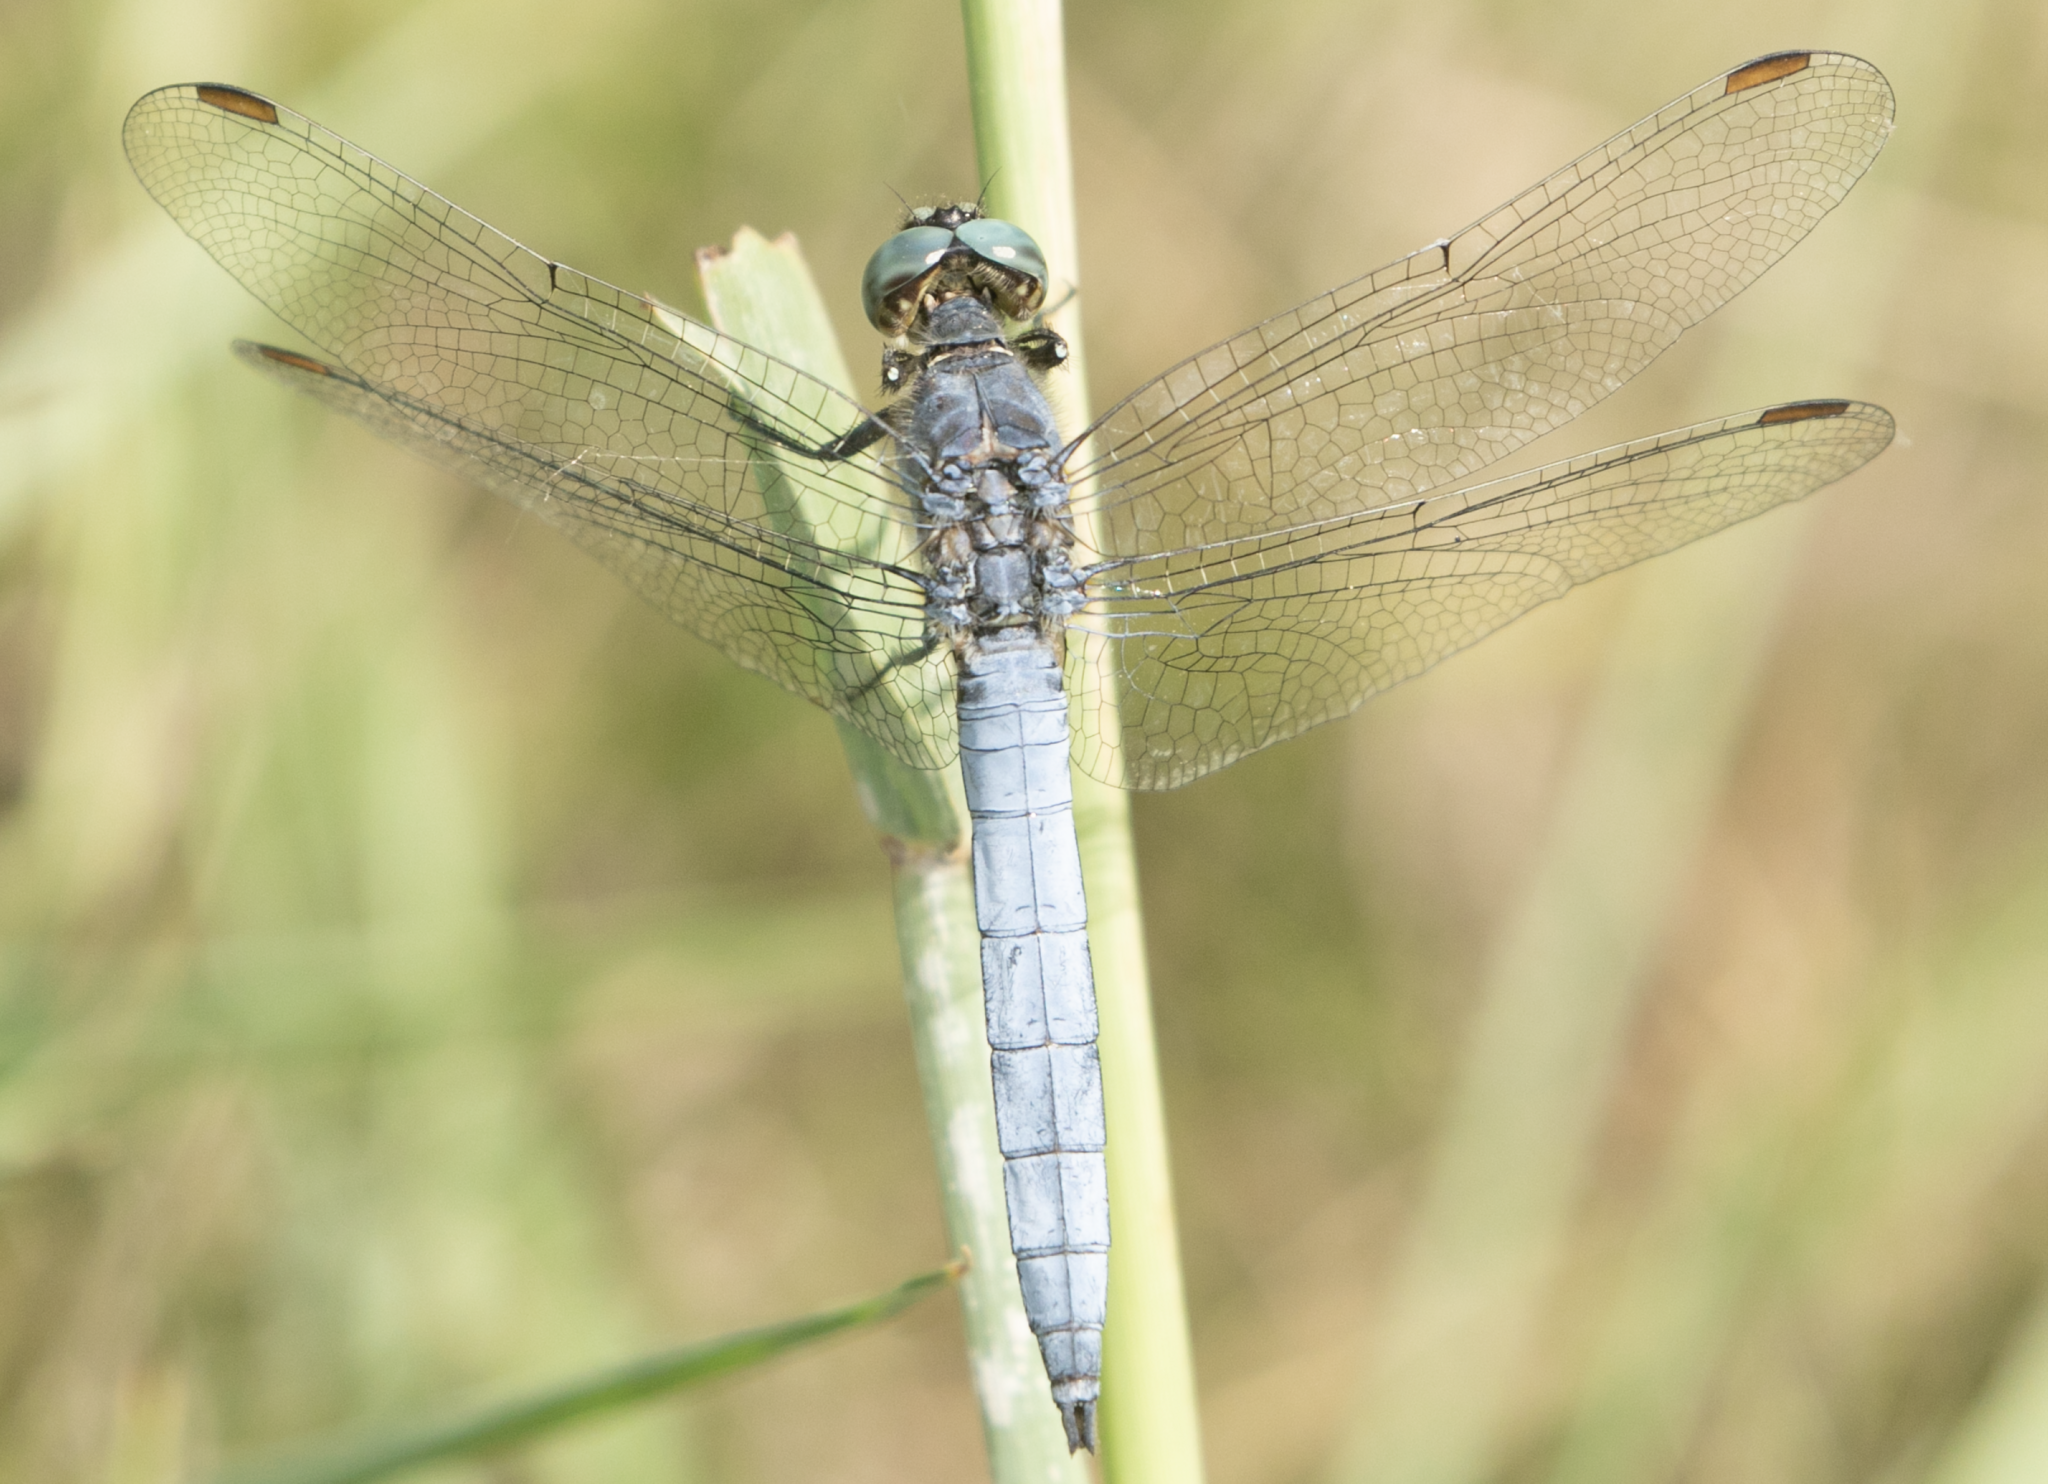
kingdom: Animalia
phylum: Arthropoda
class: Insecta
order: Odonata
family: Libellulidae
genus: Orthetrum
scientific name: Orthetrum coerulescens
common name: Keeled skimmer
